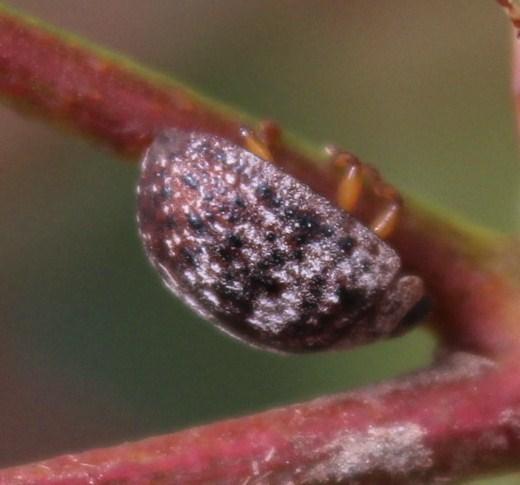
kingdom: Animalia
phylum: Arthropoda
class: Insecta
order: Coleoptera
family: Chrysomelidae
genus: Trachymela
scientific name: Trachymela
